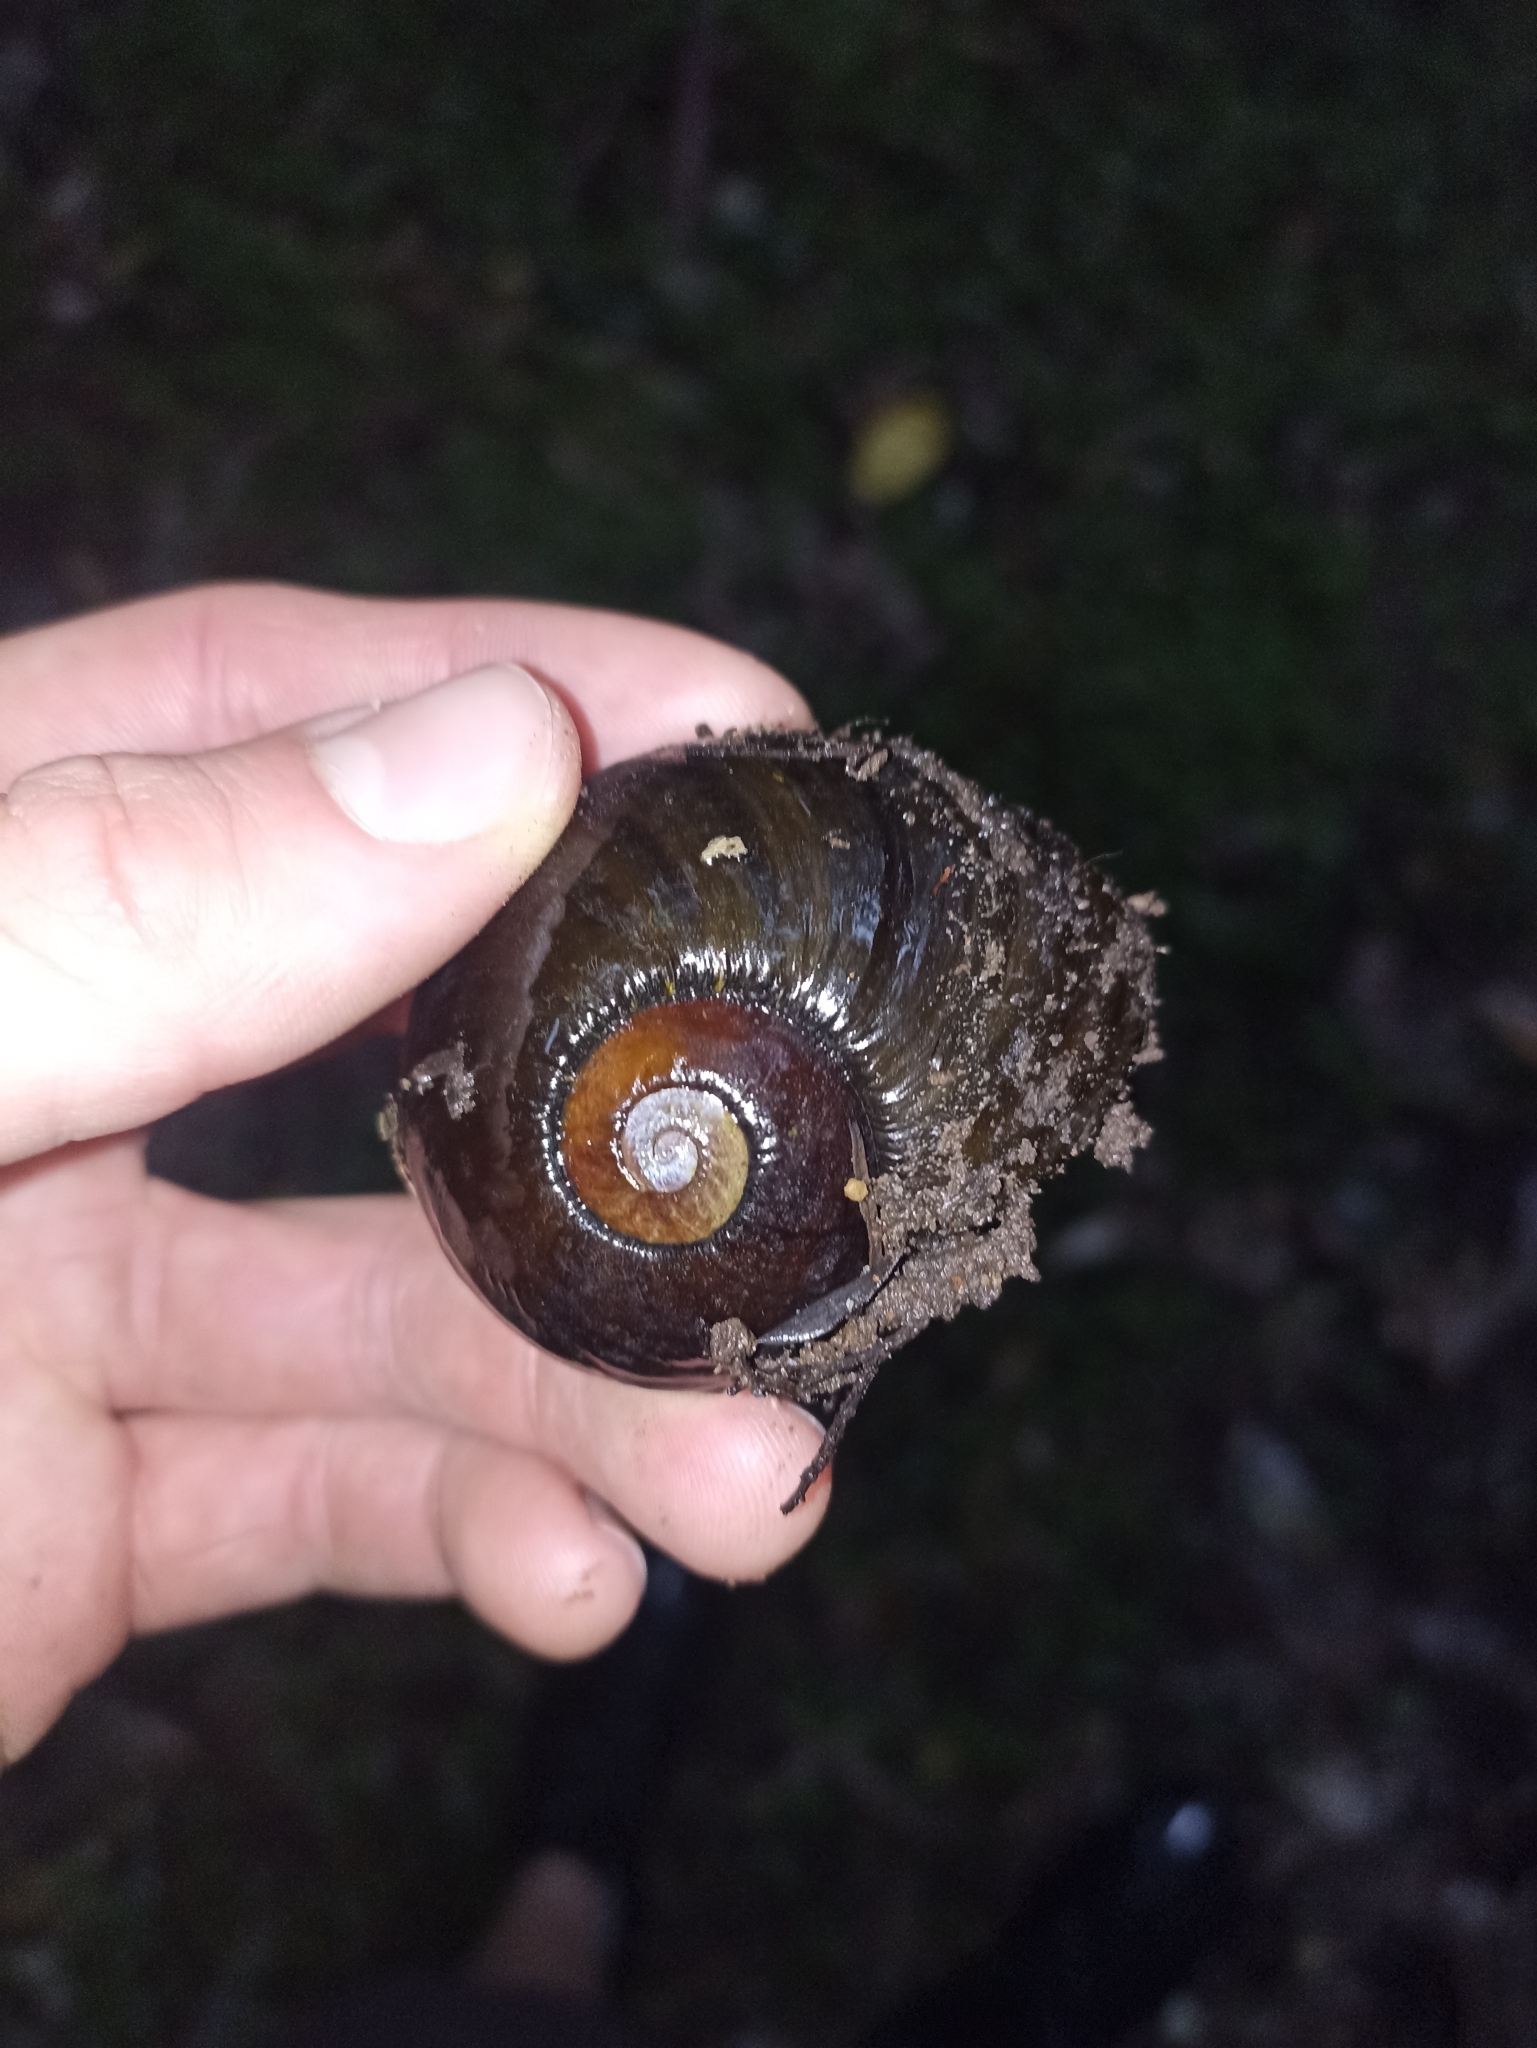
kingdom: Animalia
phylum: Mollusca
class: Gastropoda
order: Stylommatophora
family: Rhytididae
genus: Paryphanta
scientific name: Paryphanta busbyi
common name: Kauri snail
